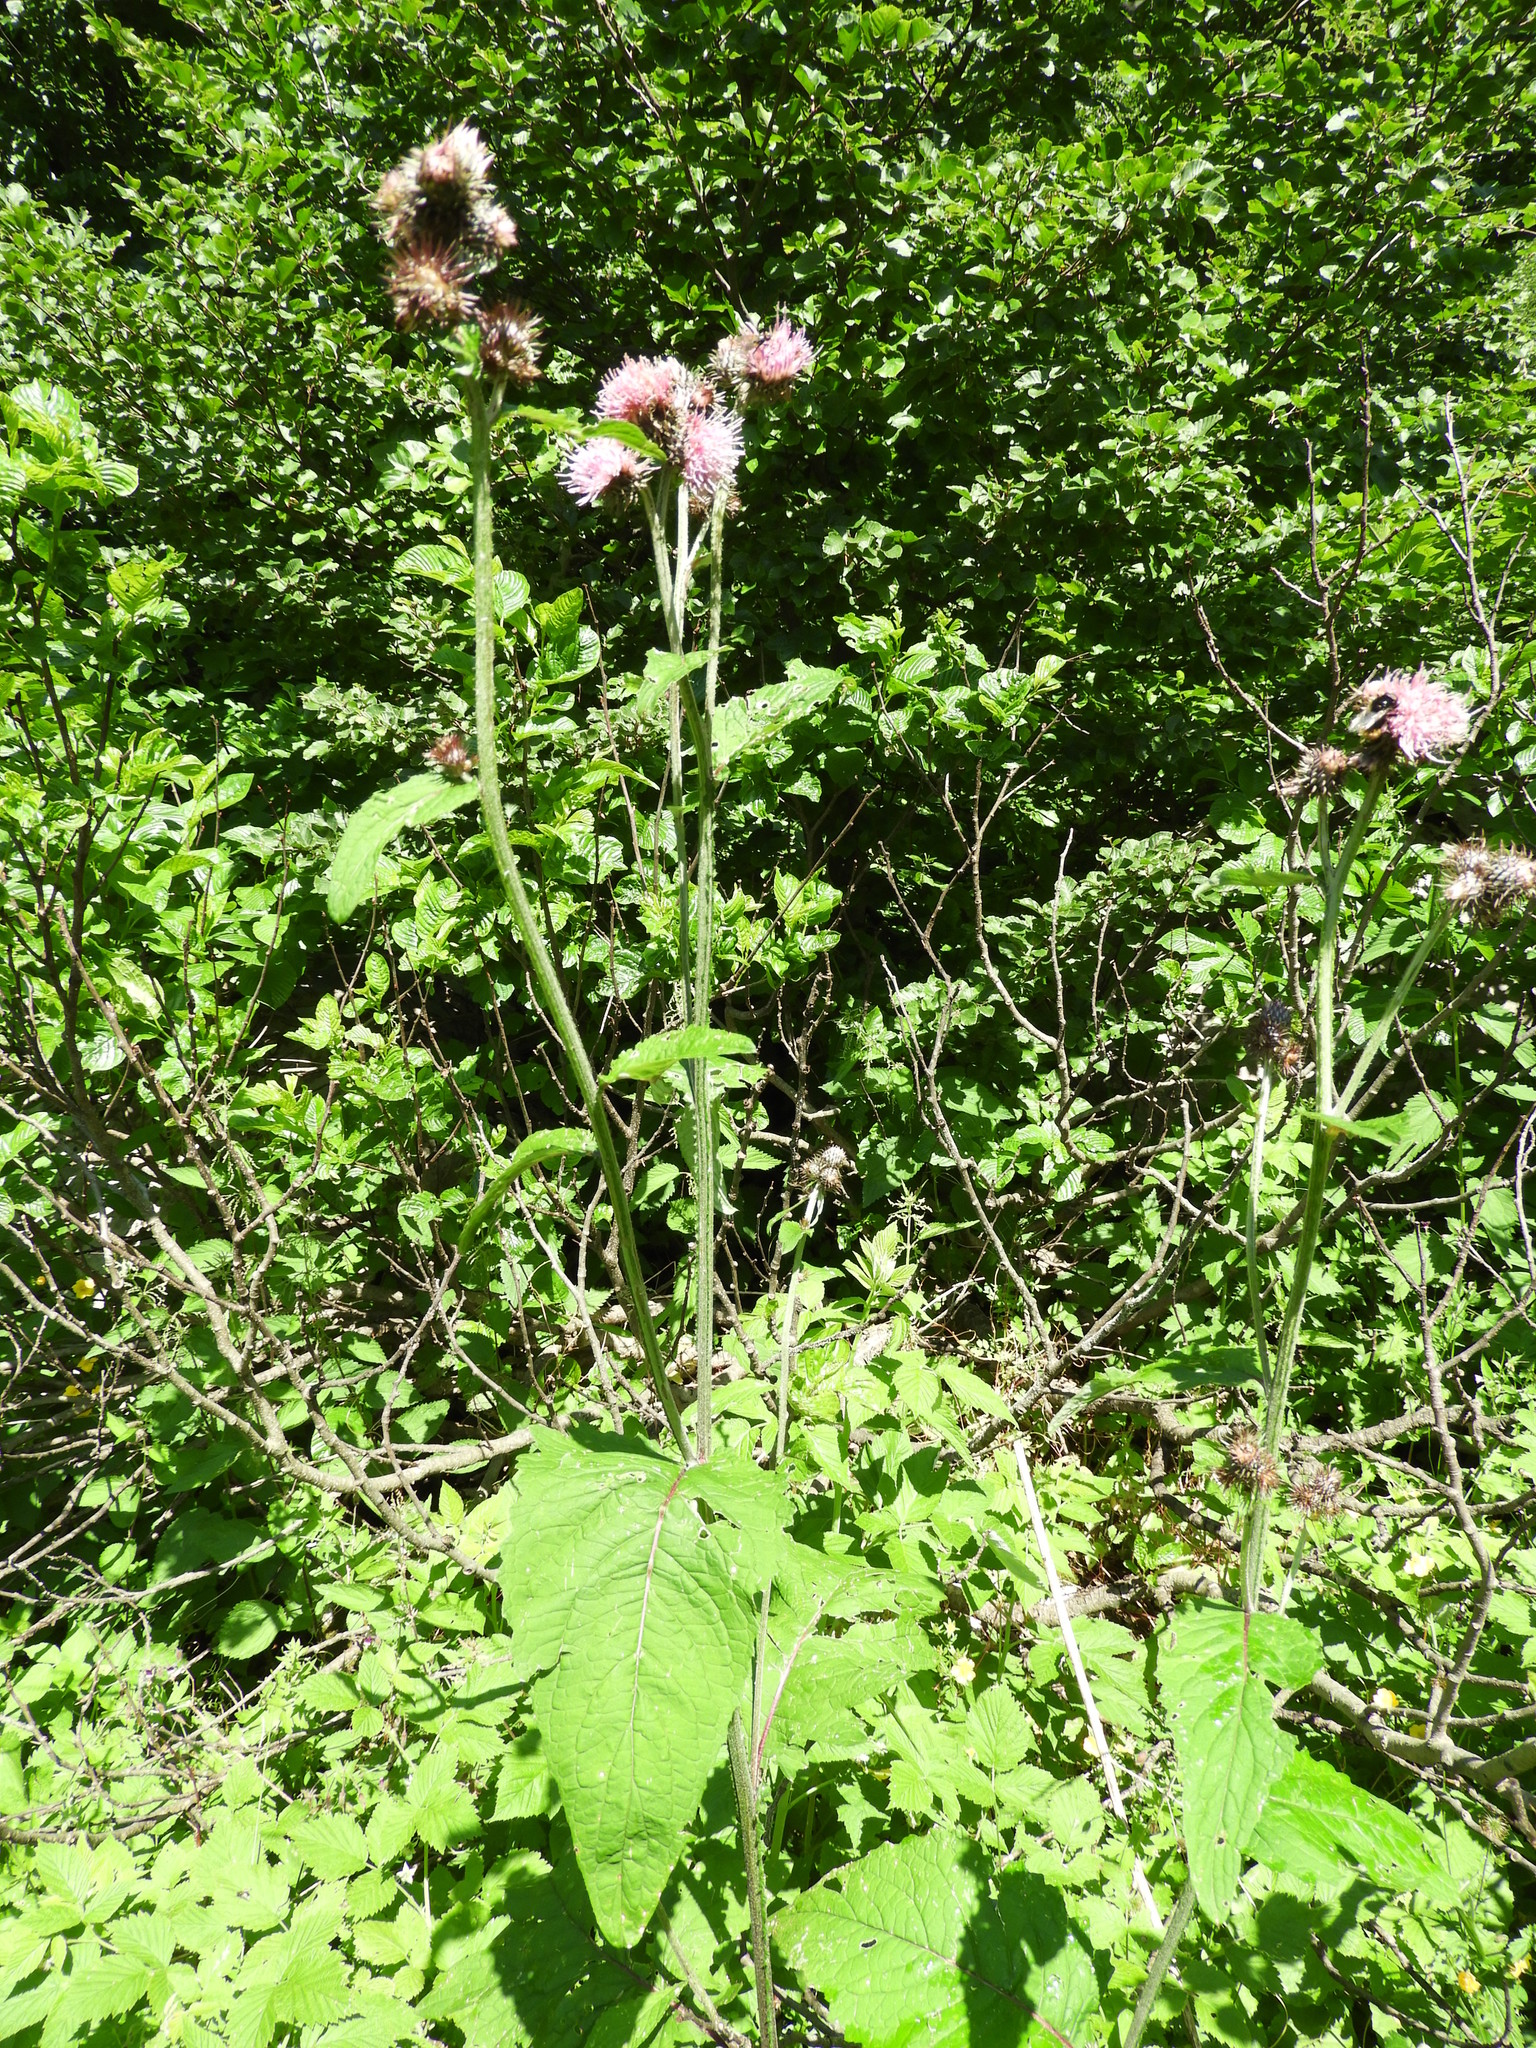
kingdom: Plantae
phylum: Tracheophyta
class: Magnoliopsida
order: Asterales
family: Asteraceae
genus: Carduus
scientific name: Carduus personata
